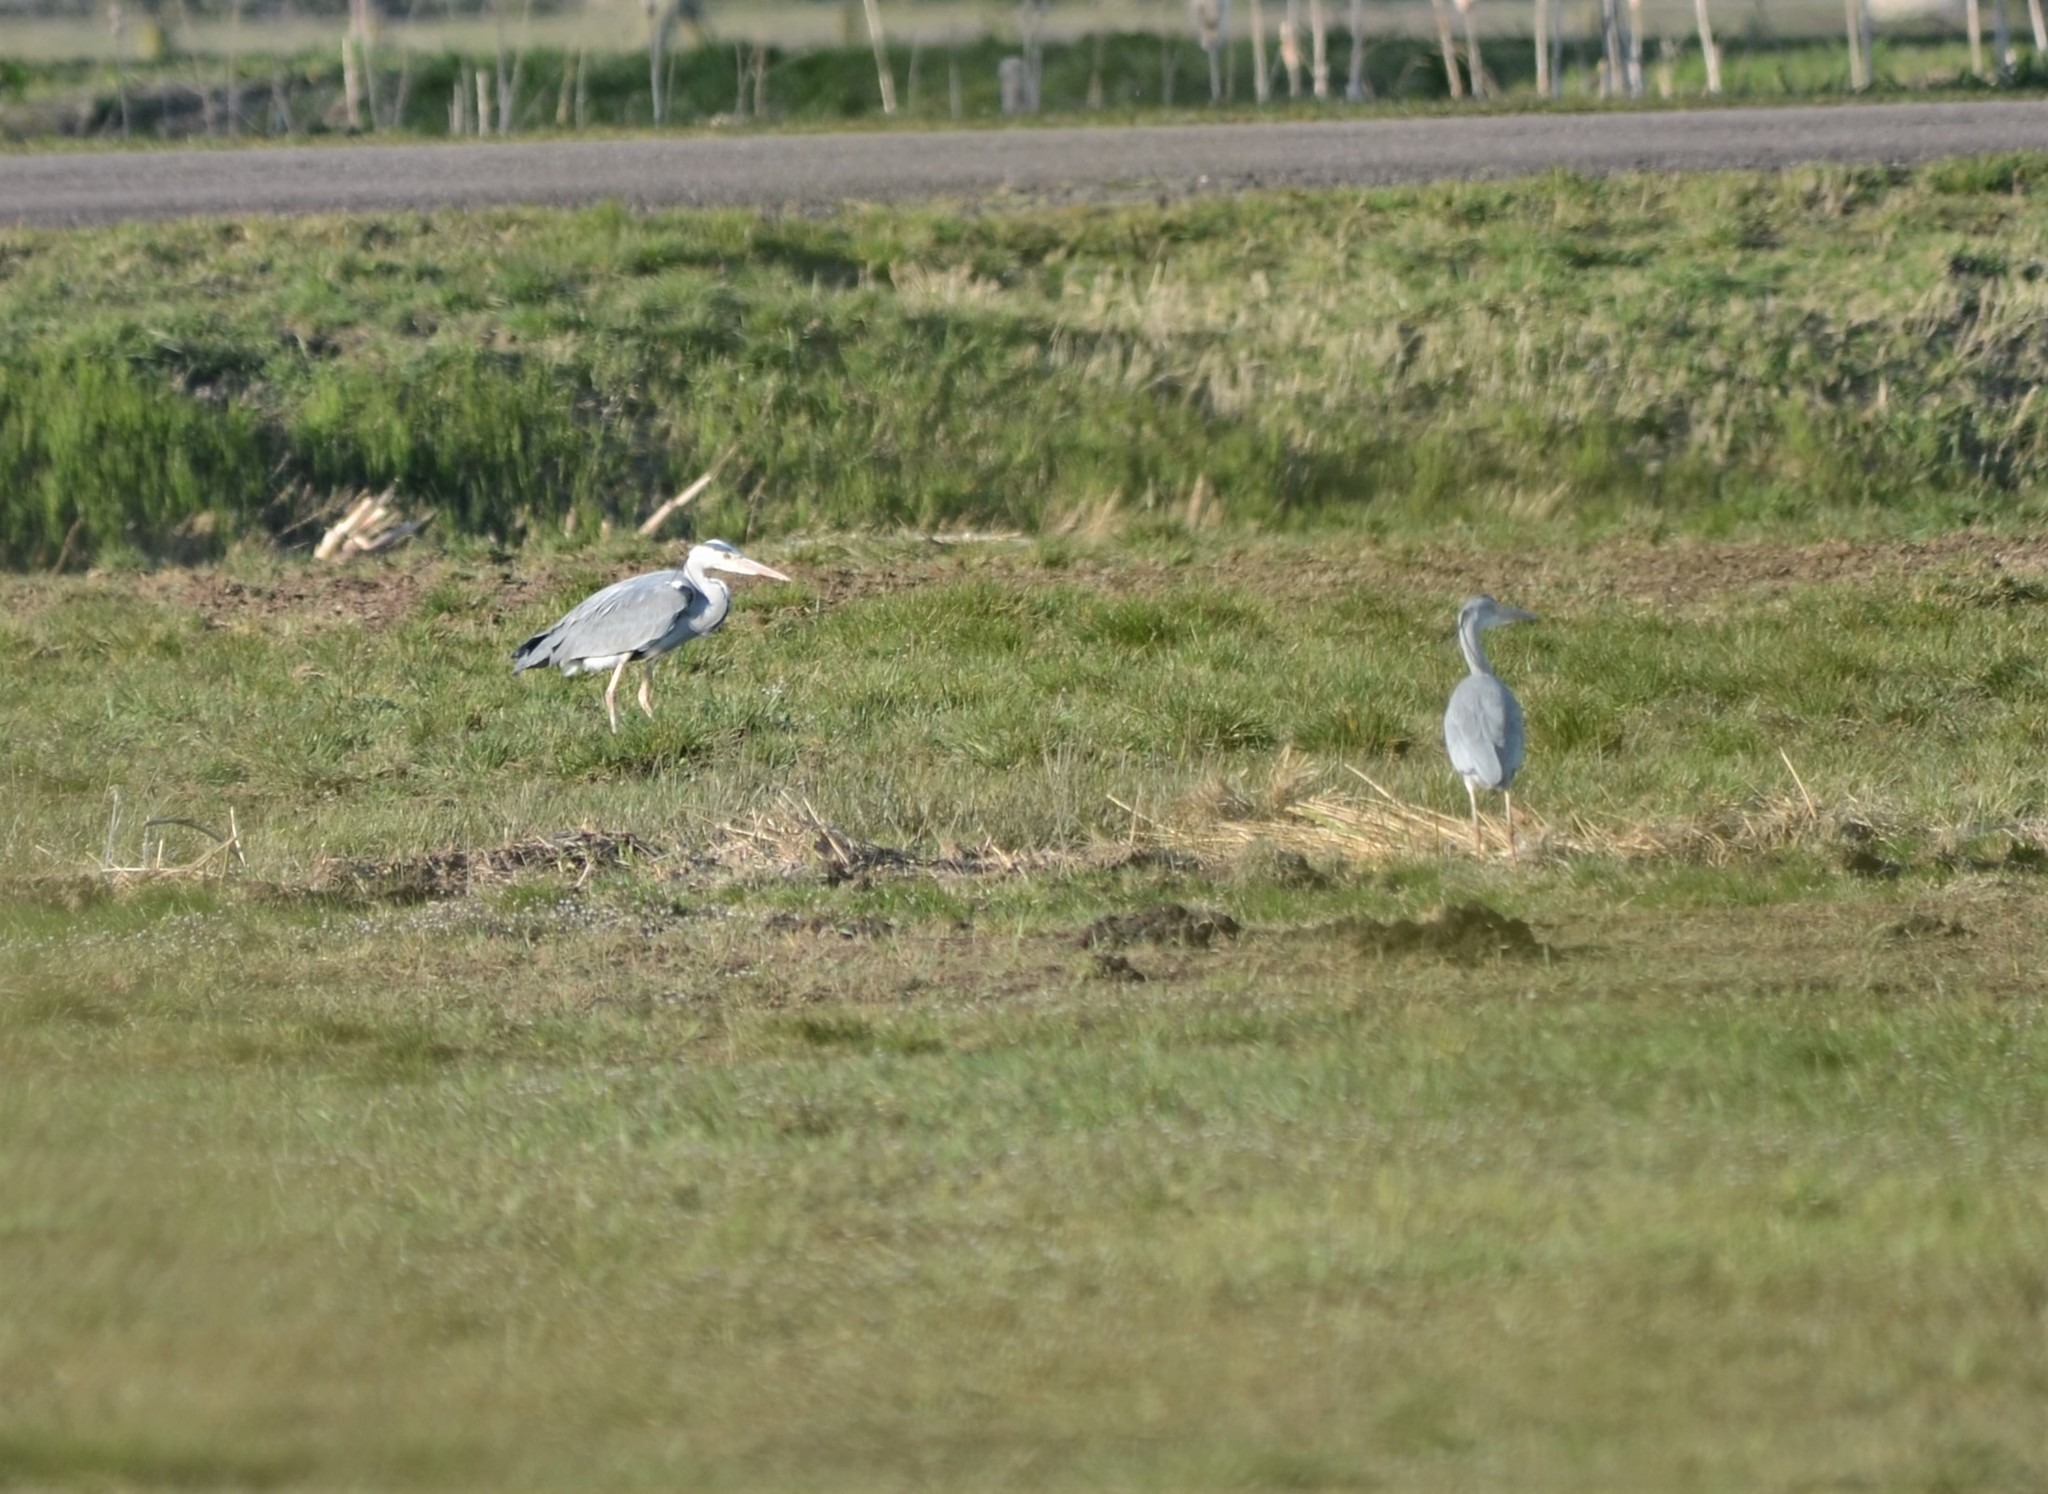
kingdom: Animalia
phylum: Chordata
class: Aves
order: Pelecaniformes
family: Ardeidae
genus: Ardea
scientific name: Ardea cinerea
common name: Grey heron
